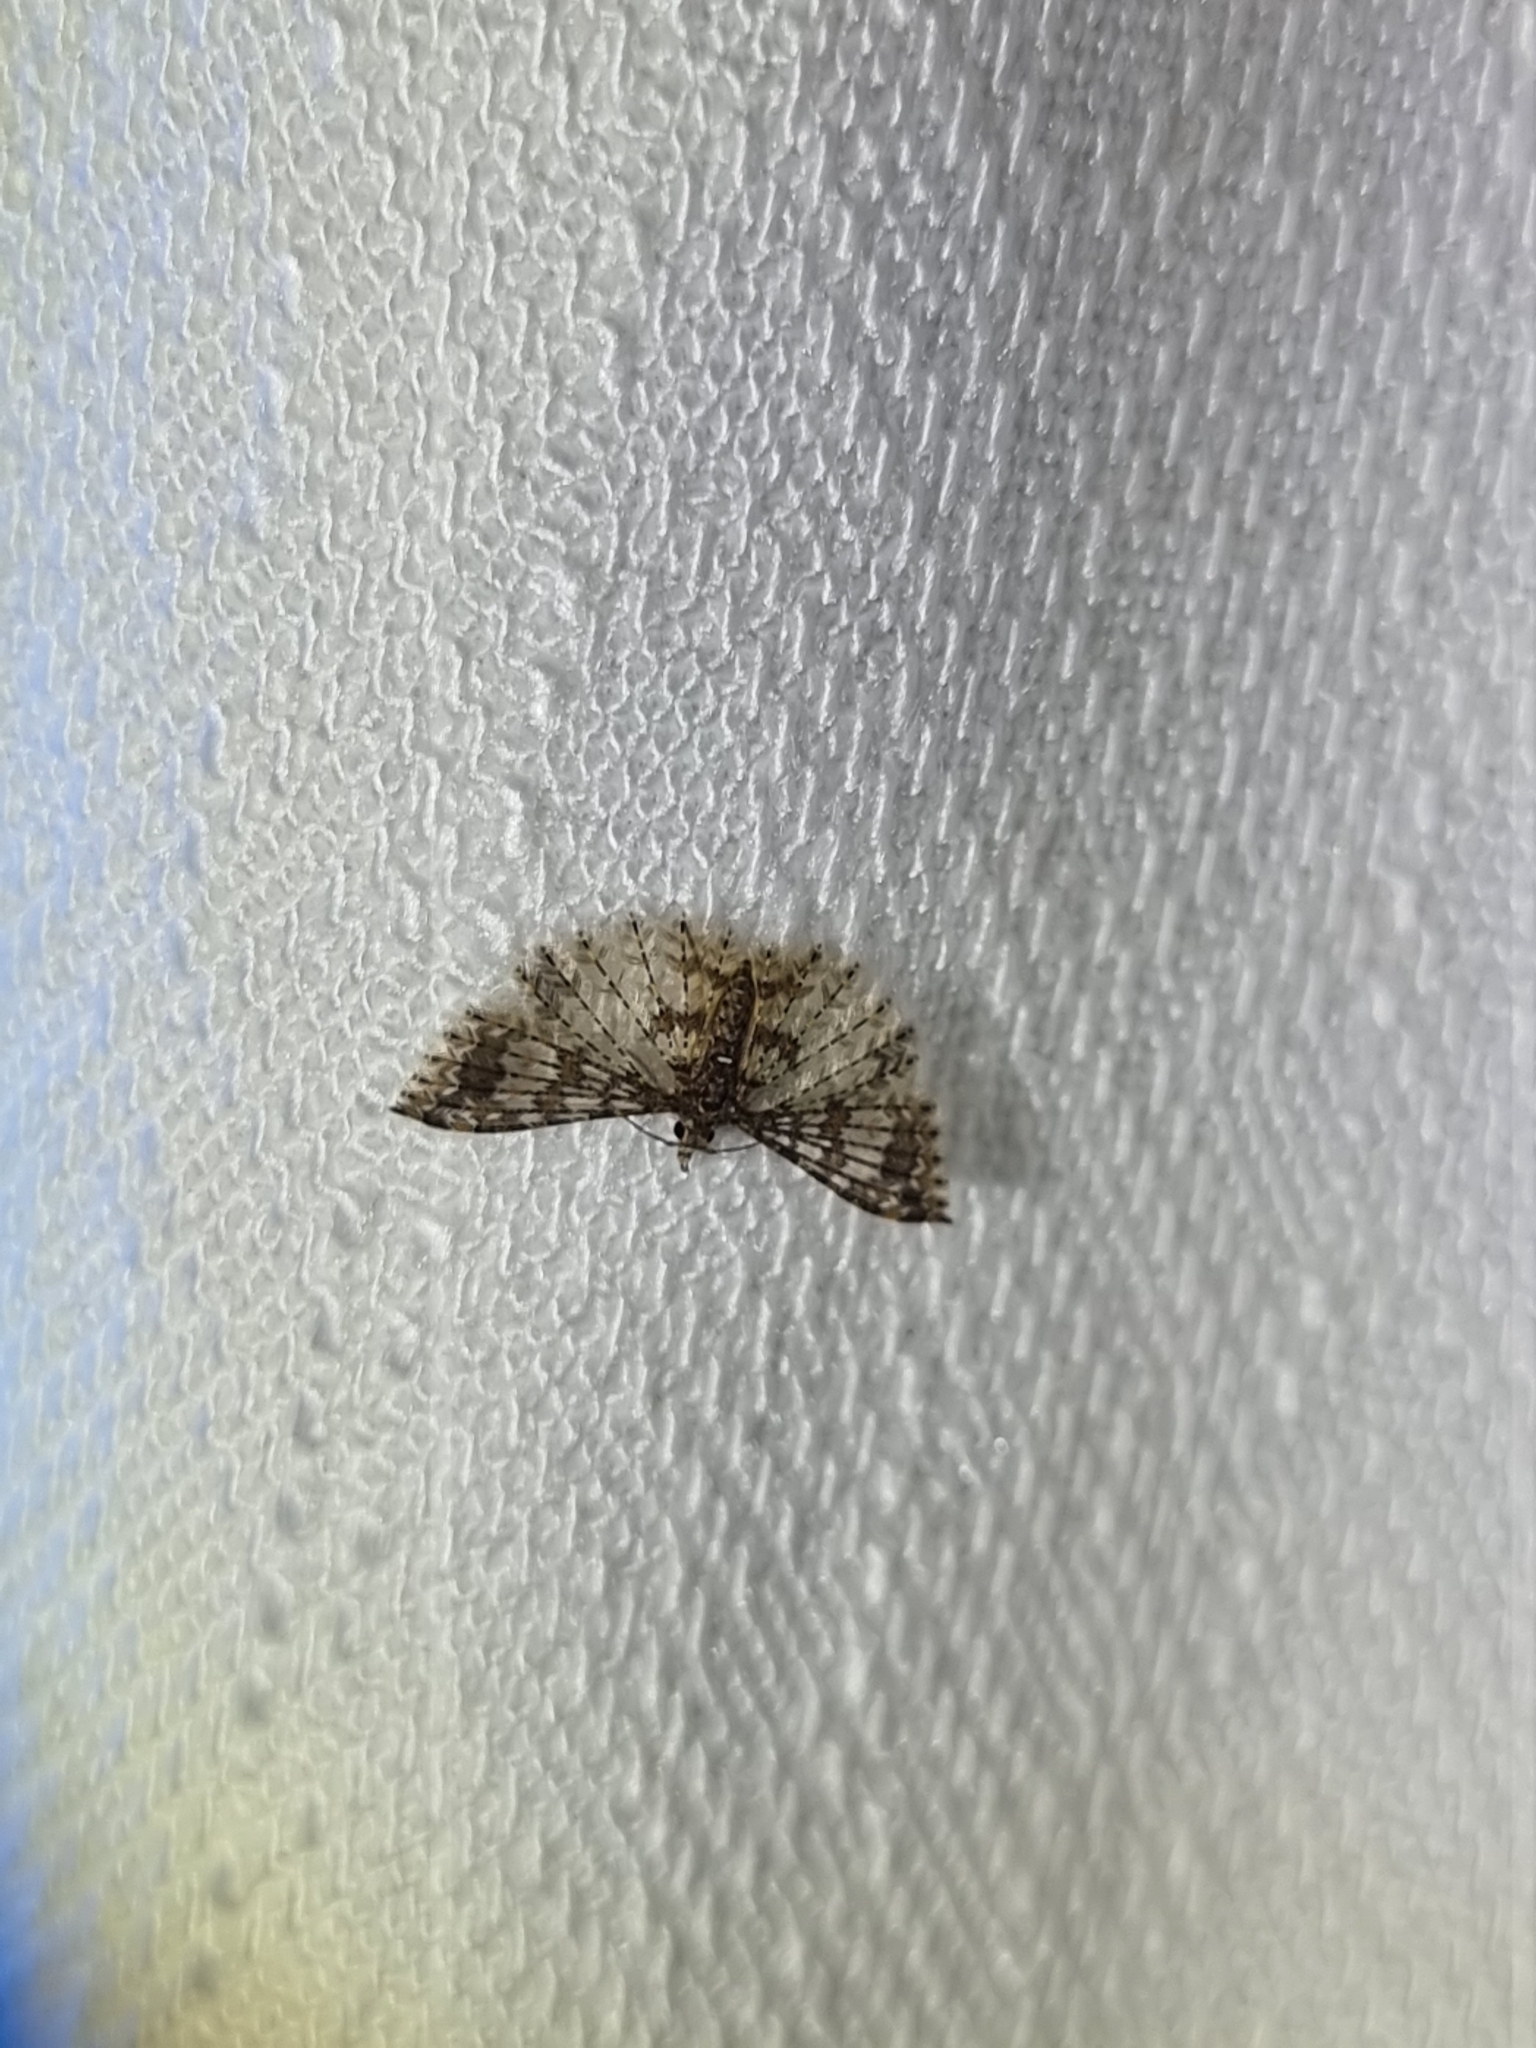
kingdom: Animalia
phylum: Arthropoda
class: Insecta
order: Lepidoptera
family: Alucitidae
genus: Alucita
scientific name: Alucita phricodes
